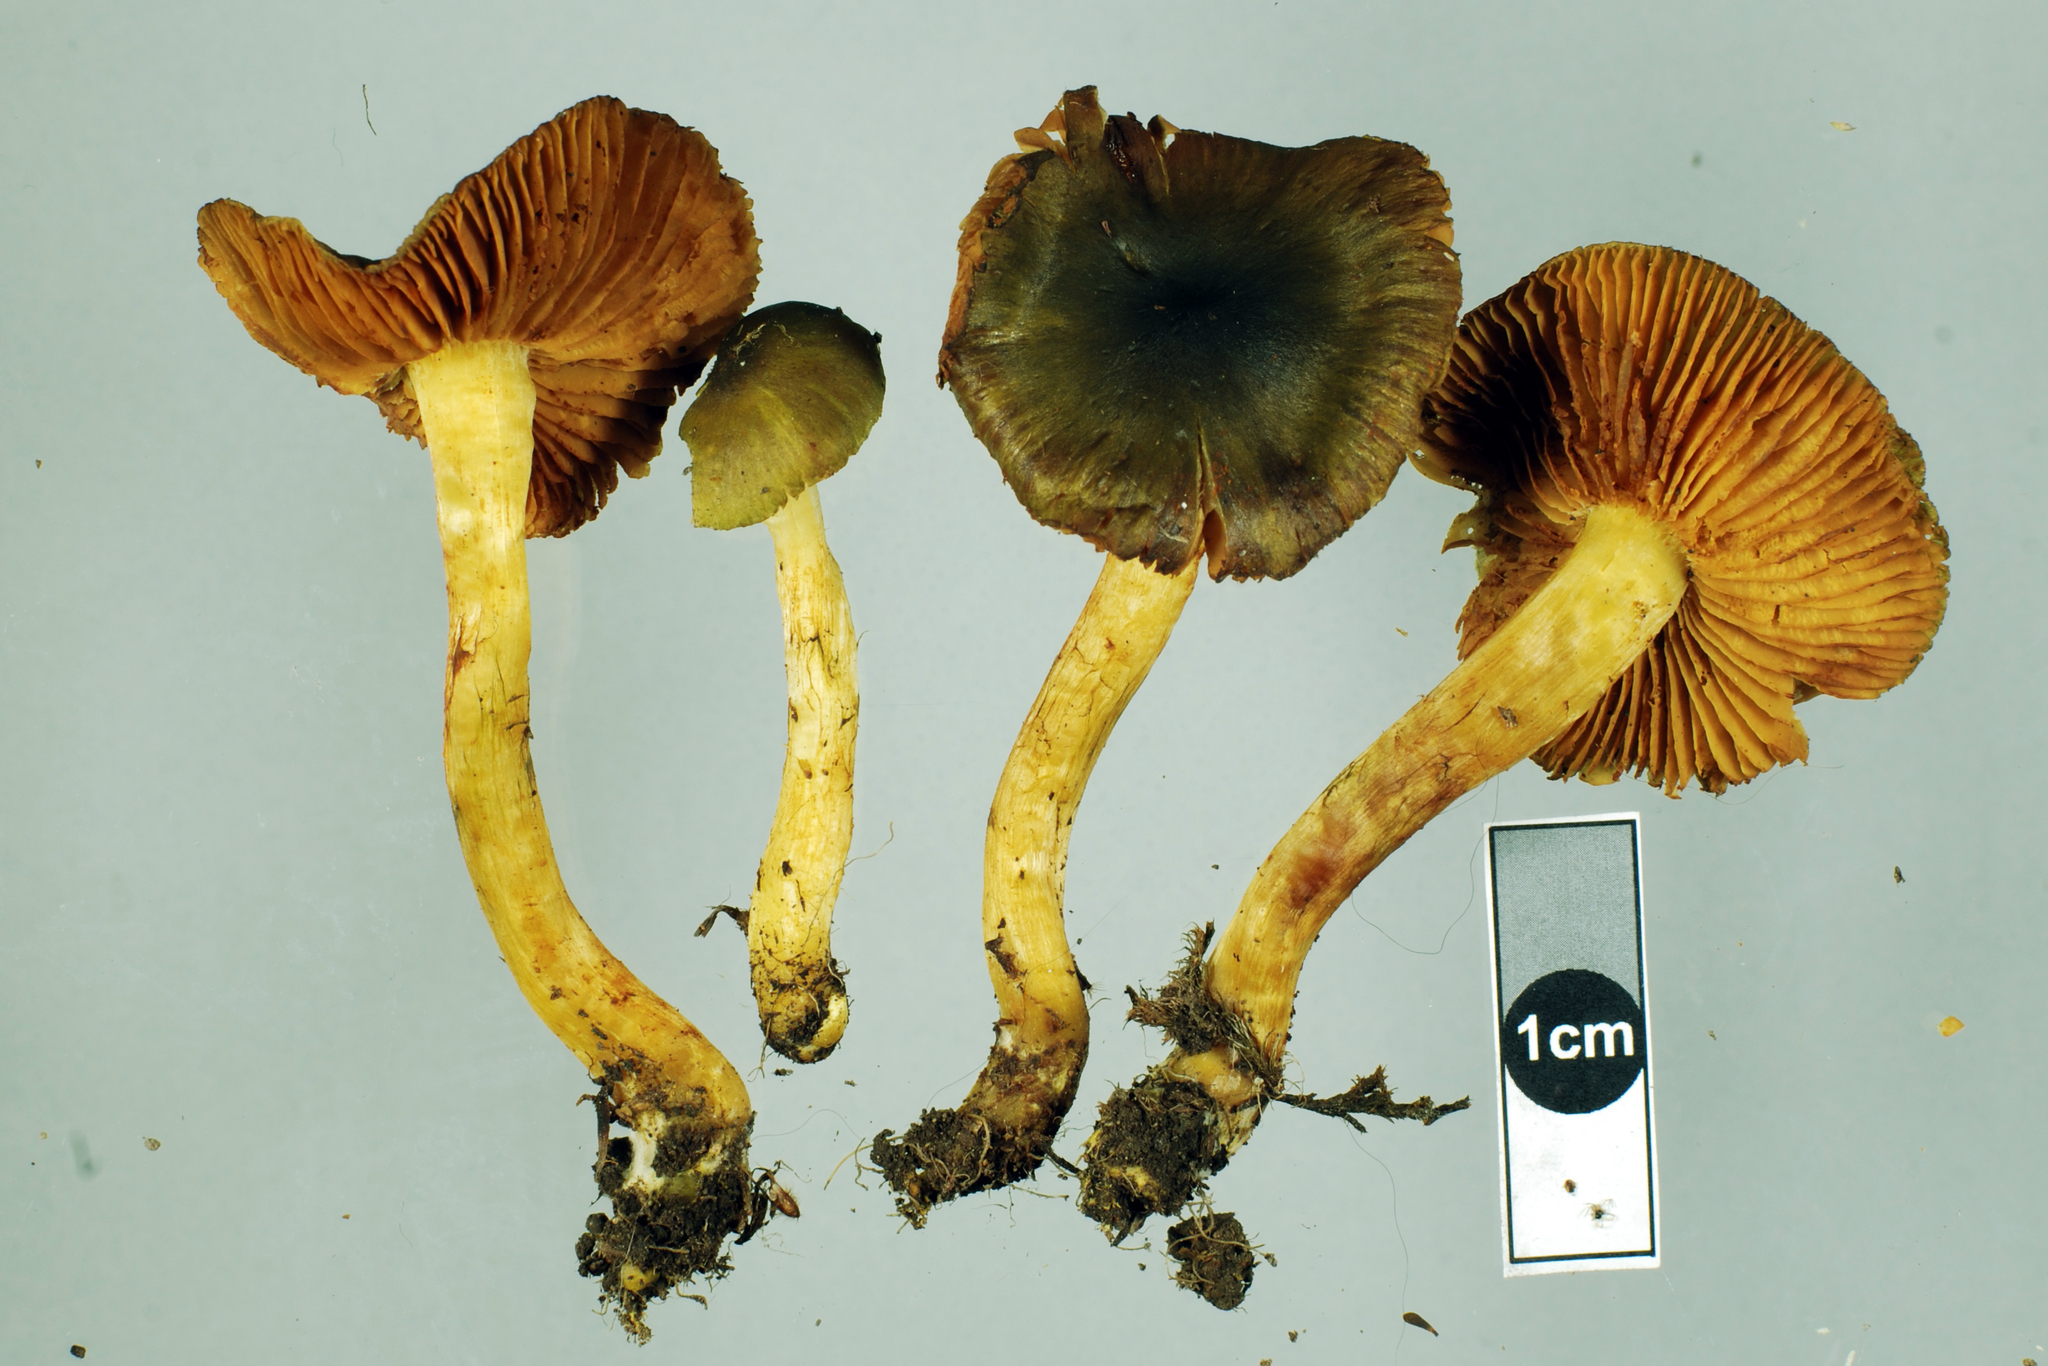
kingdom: Fungi
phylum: Basidiomycota
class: Agaricomycetes
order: Agaricales
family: Cortinariaceae
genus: Cortinarius
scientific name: Cortinarius olivaceoniger
